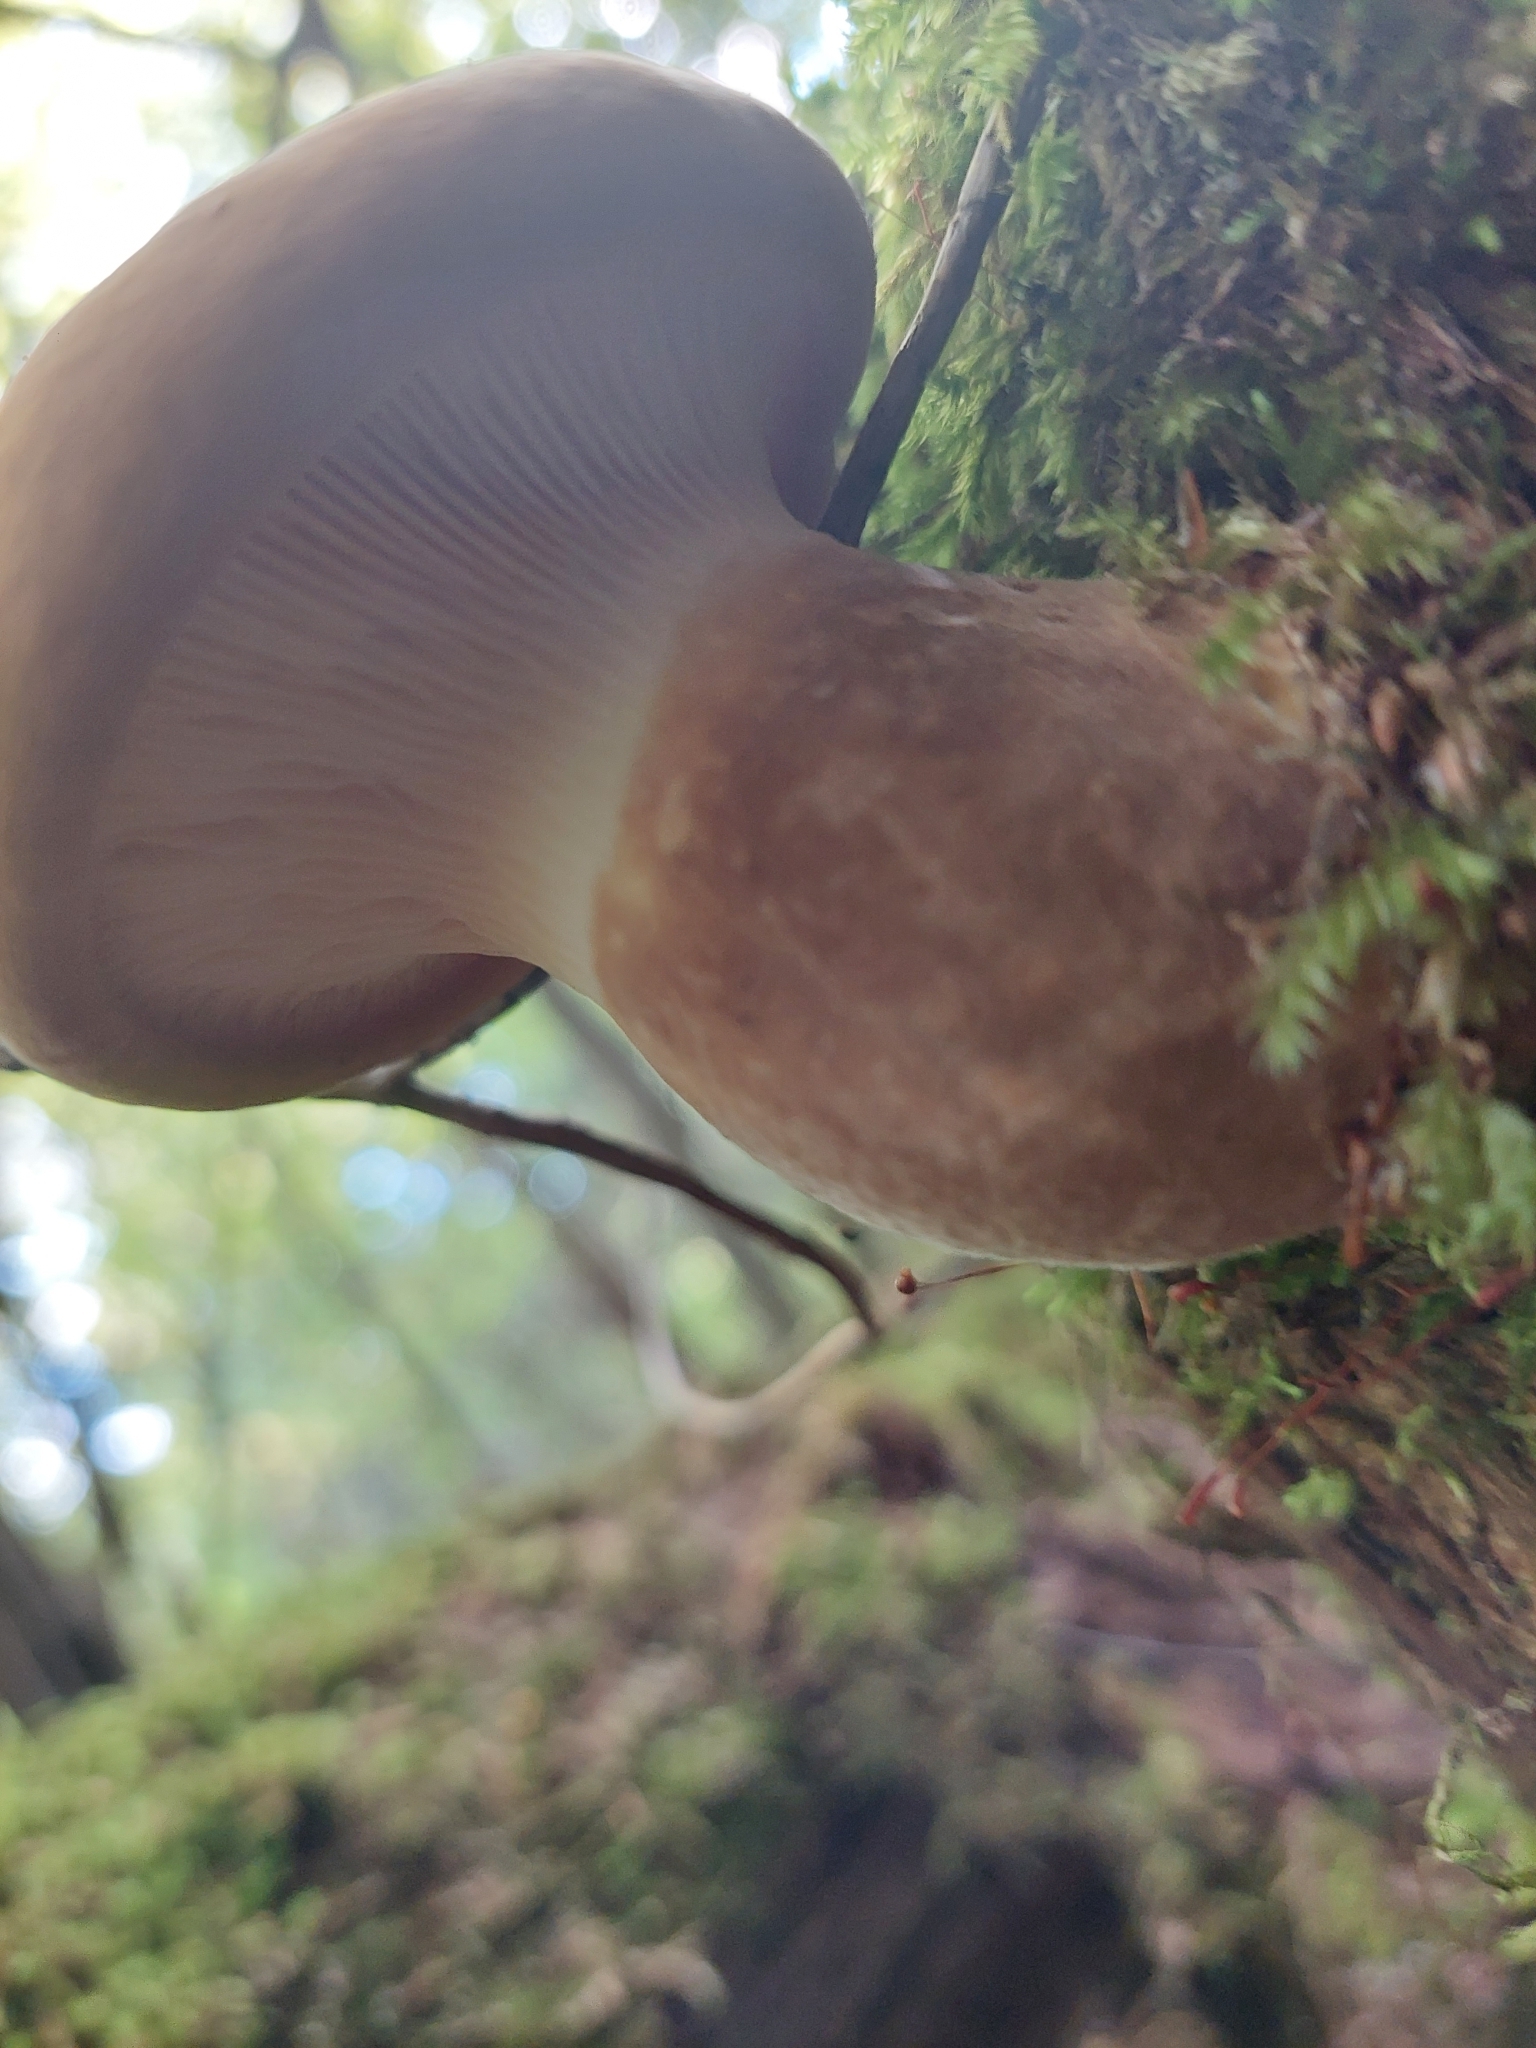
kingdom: Fungi
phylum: Basidiomycota
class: Agaricomycetes
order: Boletales
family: Tapinellaceae
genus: Tapinella
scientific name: Tapinella atrotomentosa
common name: Velvet rollrim
